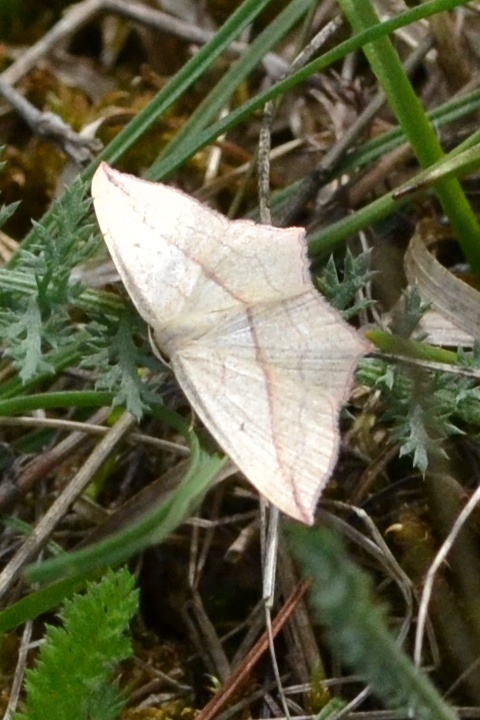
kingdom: Animalia
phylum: Arthropoda
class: Insecta
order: Lepidoptera
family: Geometridae
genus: Timandra
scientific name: Timandra comae
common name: Blood-vein
